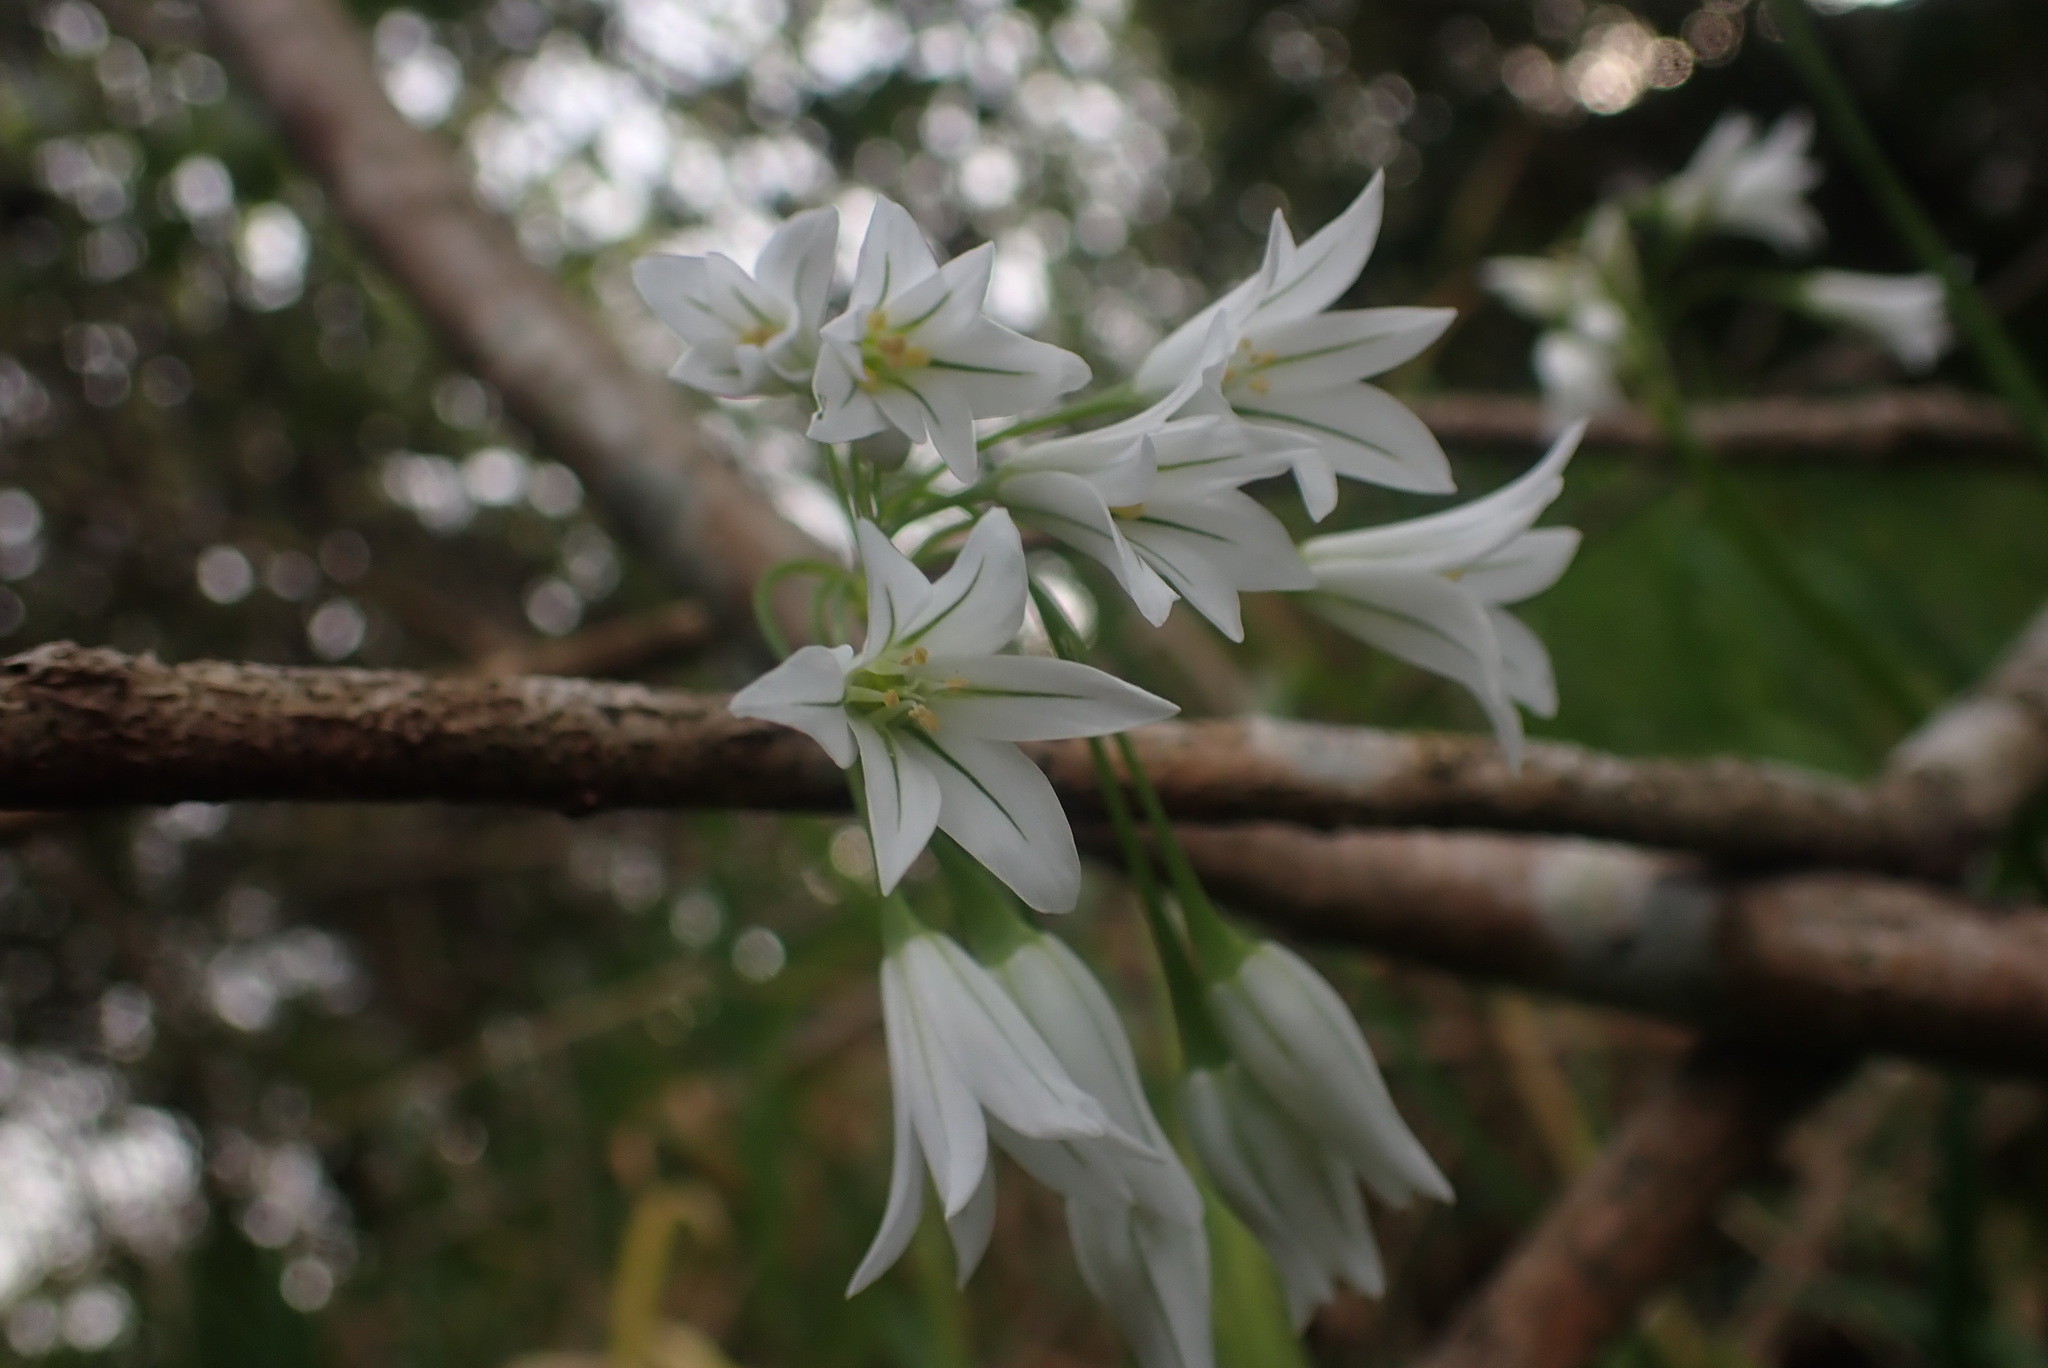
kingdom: Plantae
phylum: Tracheophyta
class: Liliopsida
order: Asparagales
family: Amaryllidaceae
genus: Allium
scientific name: Allium triquetrum
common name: Three-cornered garlic
